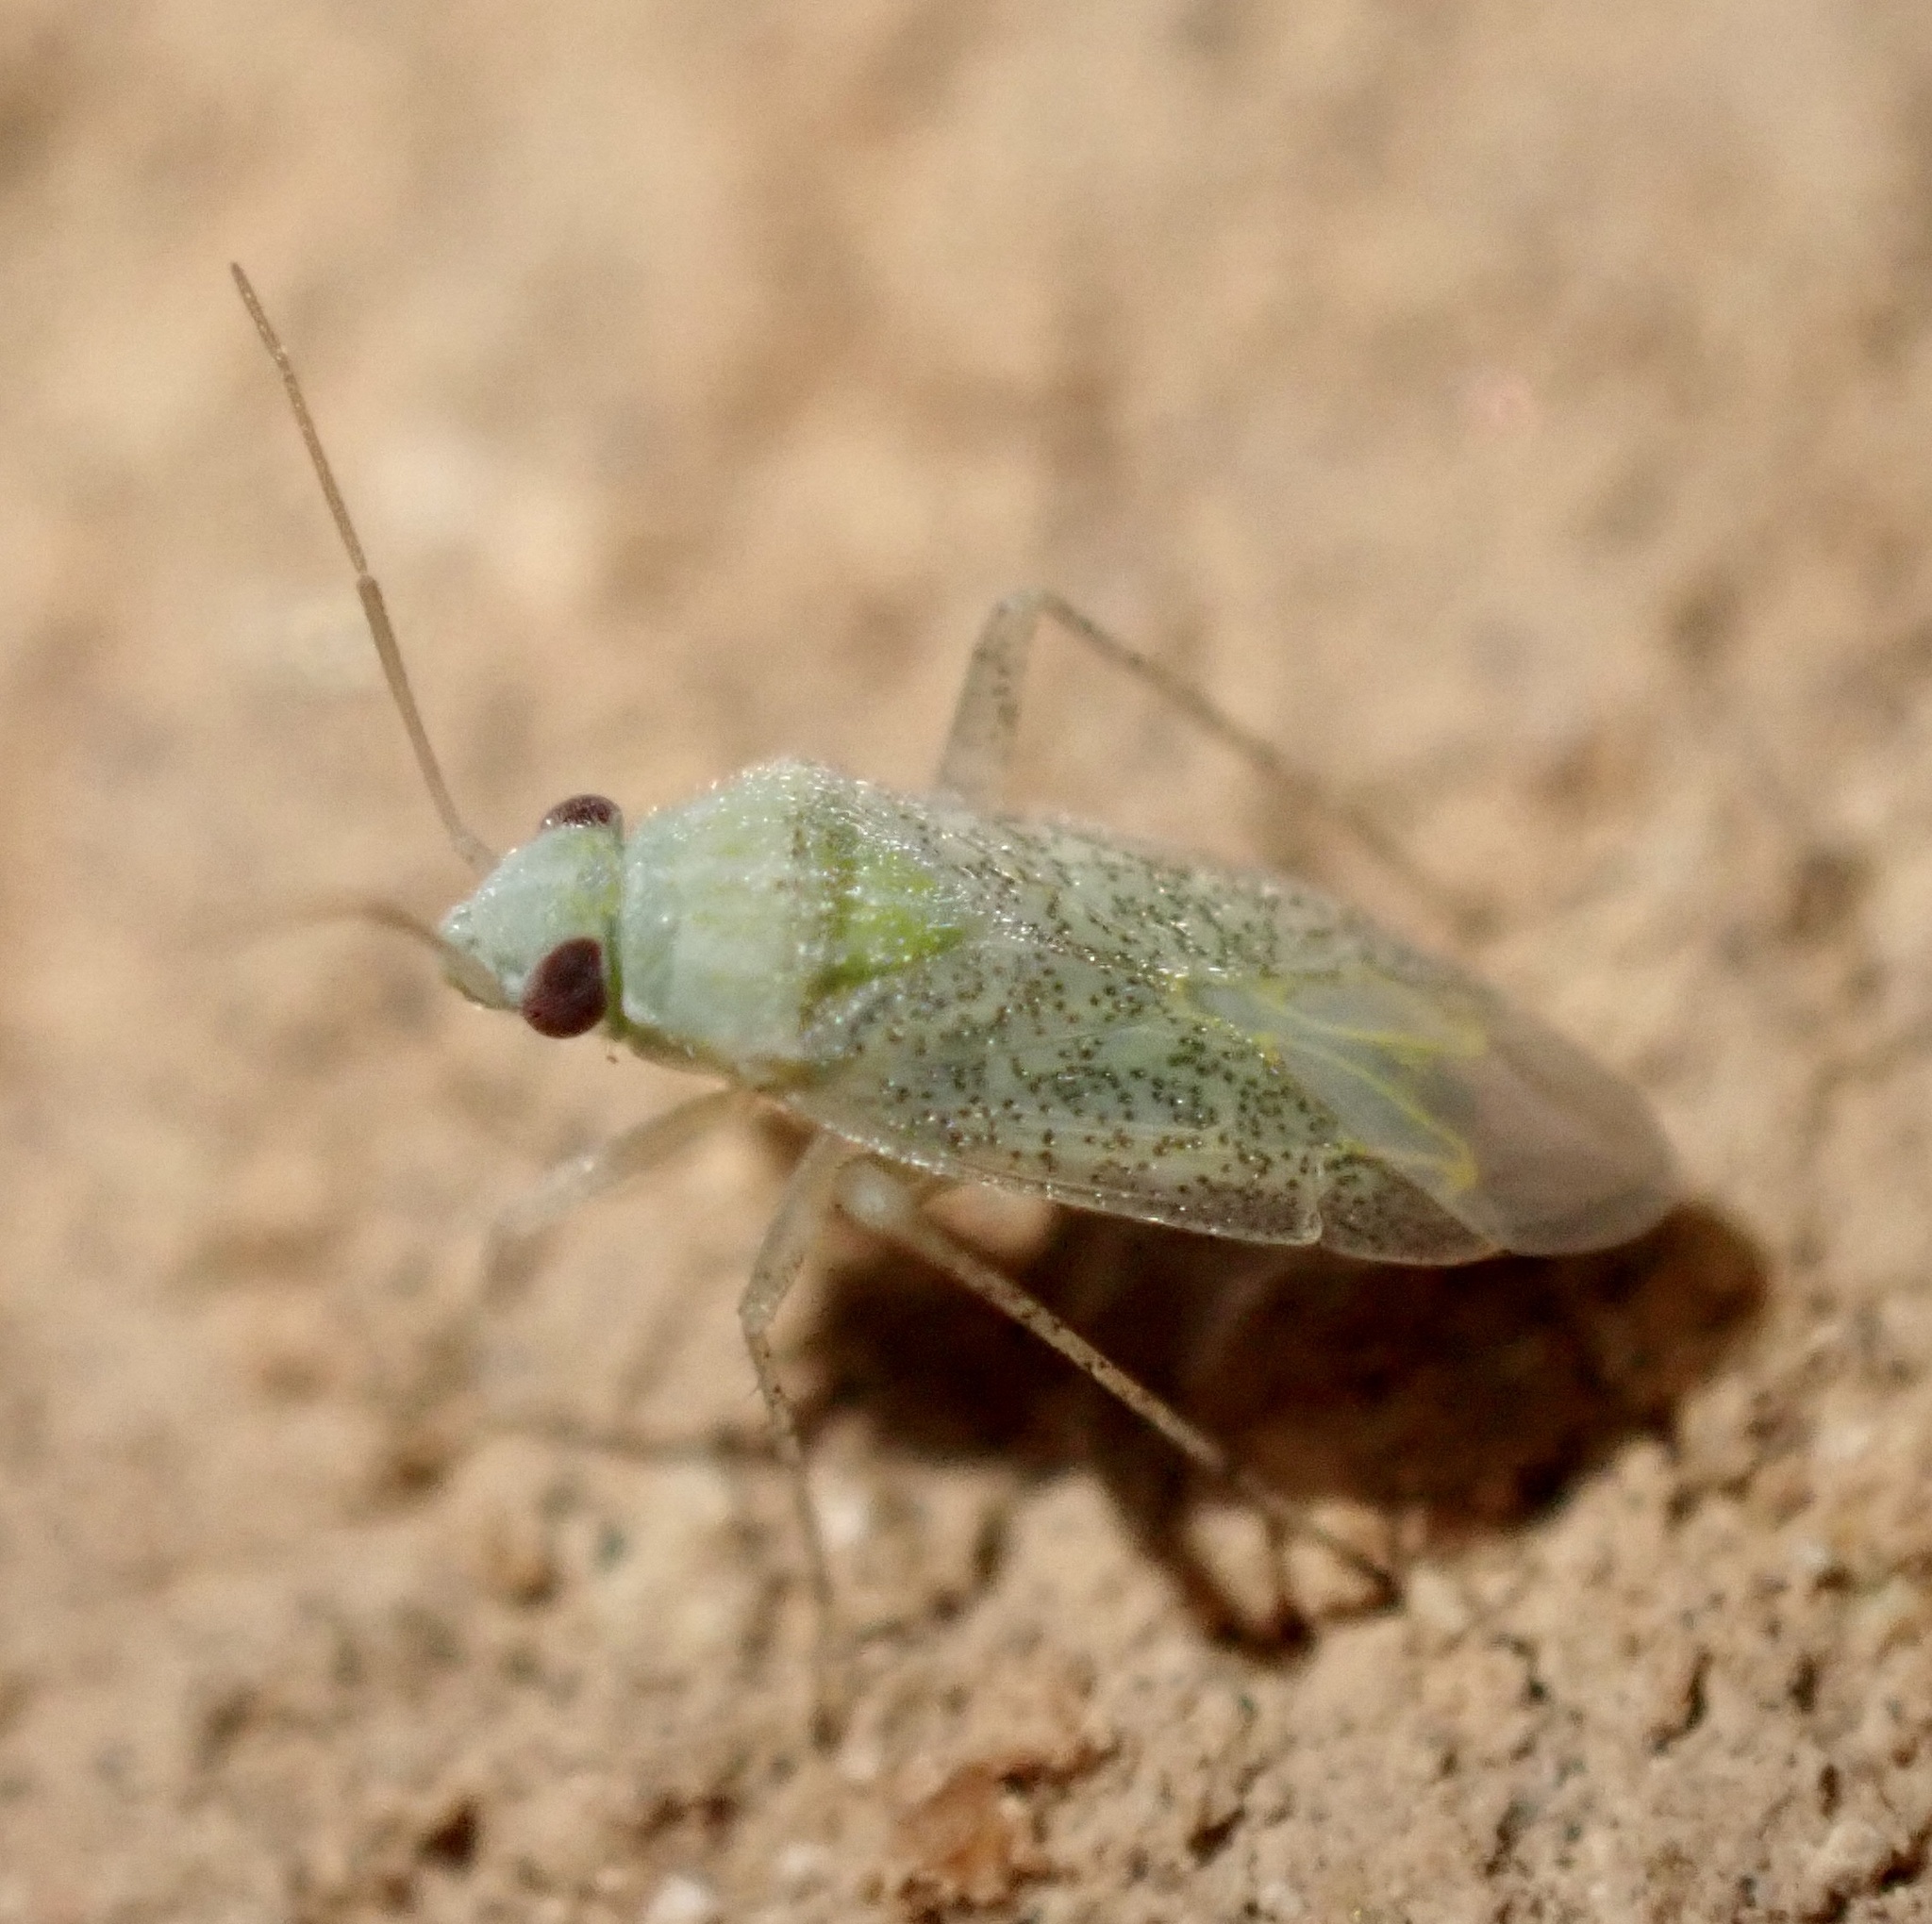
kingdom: Animalia
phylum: Arthropoda
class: Insecta
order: Hemiptera
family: Miridae
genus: Stenoparia
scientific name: Stenoparia putoni
